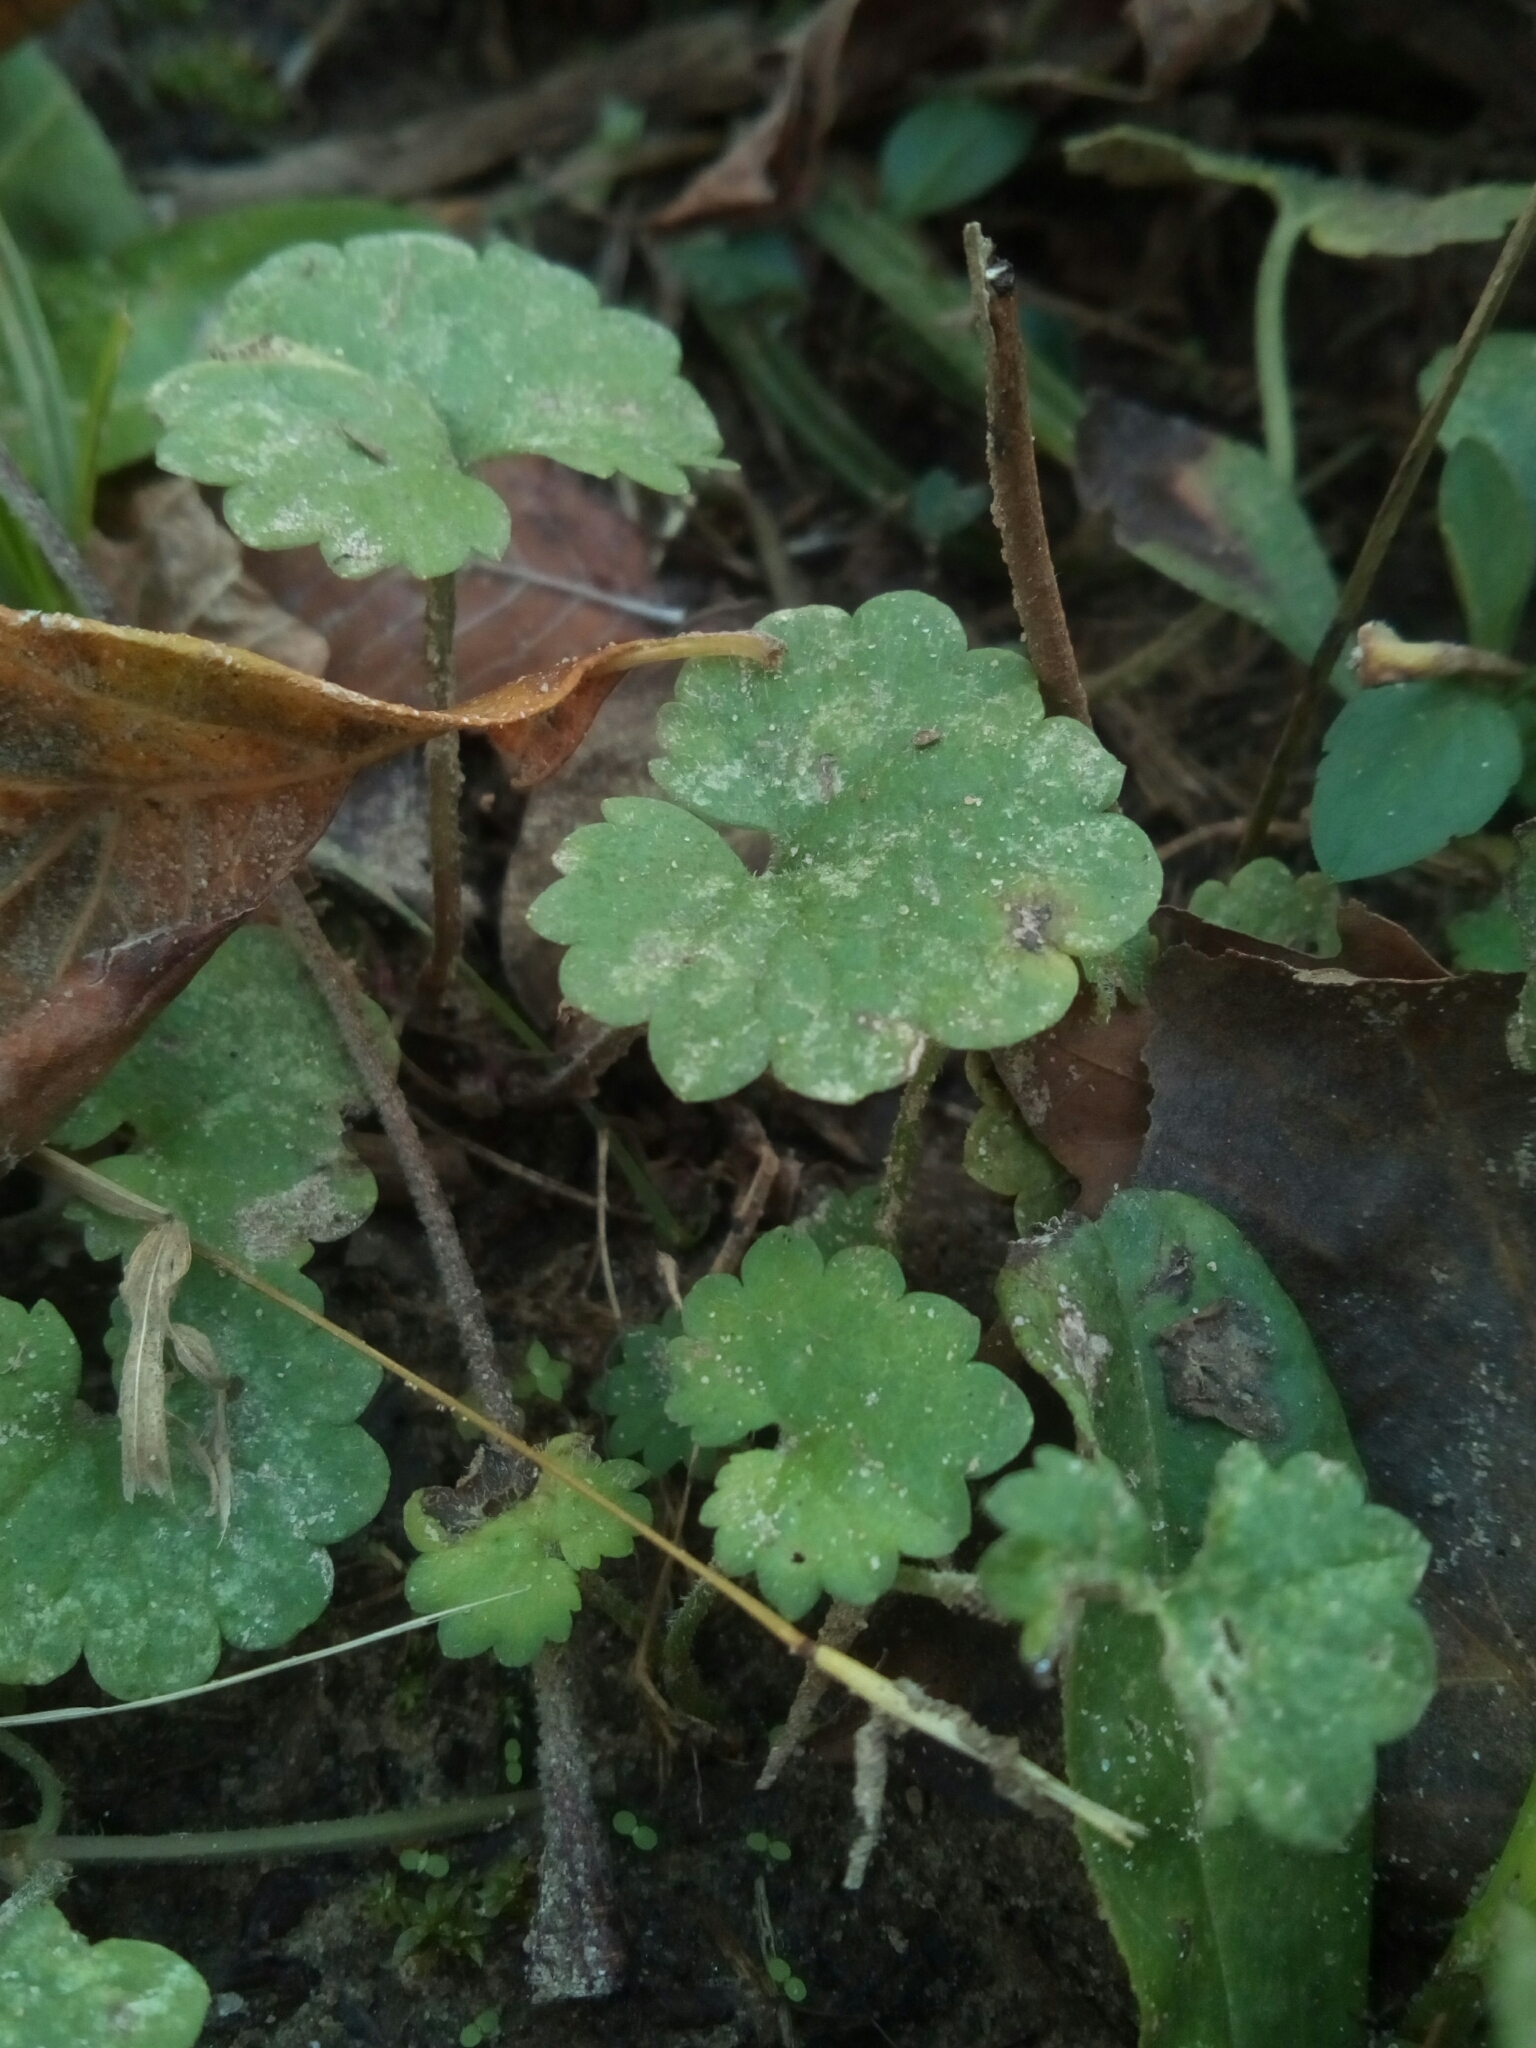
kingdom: Plantae
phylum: Tracheophyta
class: Magnoliopsida
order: Lamiales
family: Lamiaceae
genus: Glechoma
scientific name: Glechoma hederacea
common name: Ground ivy
